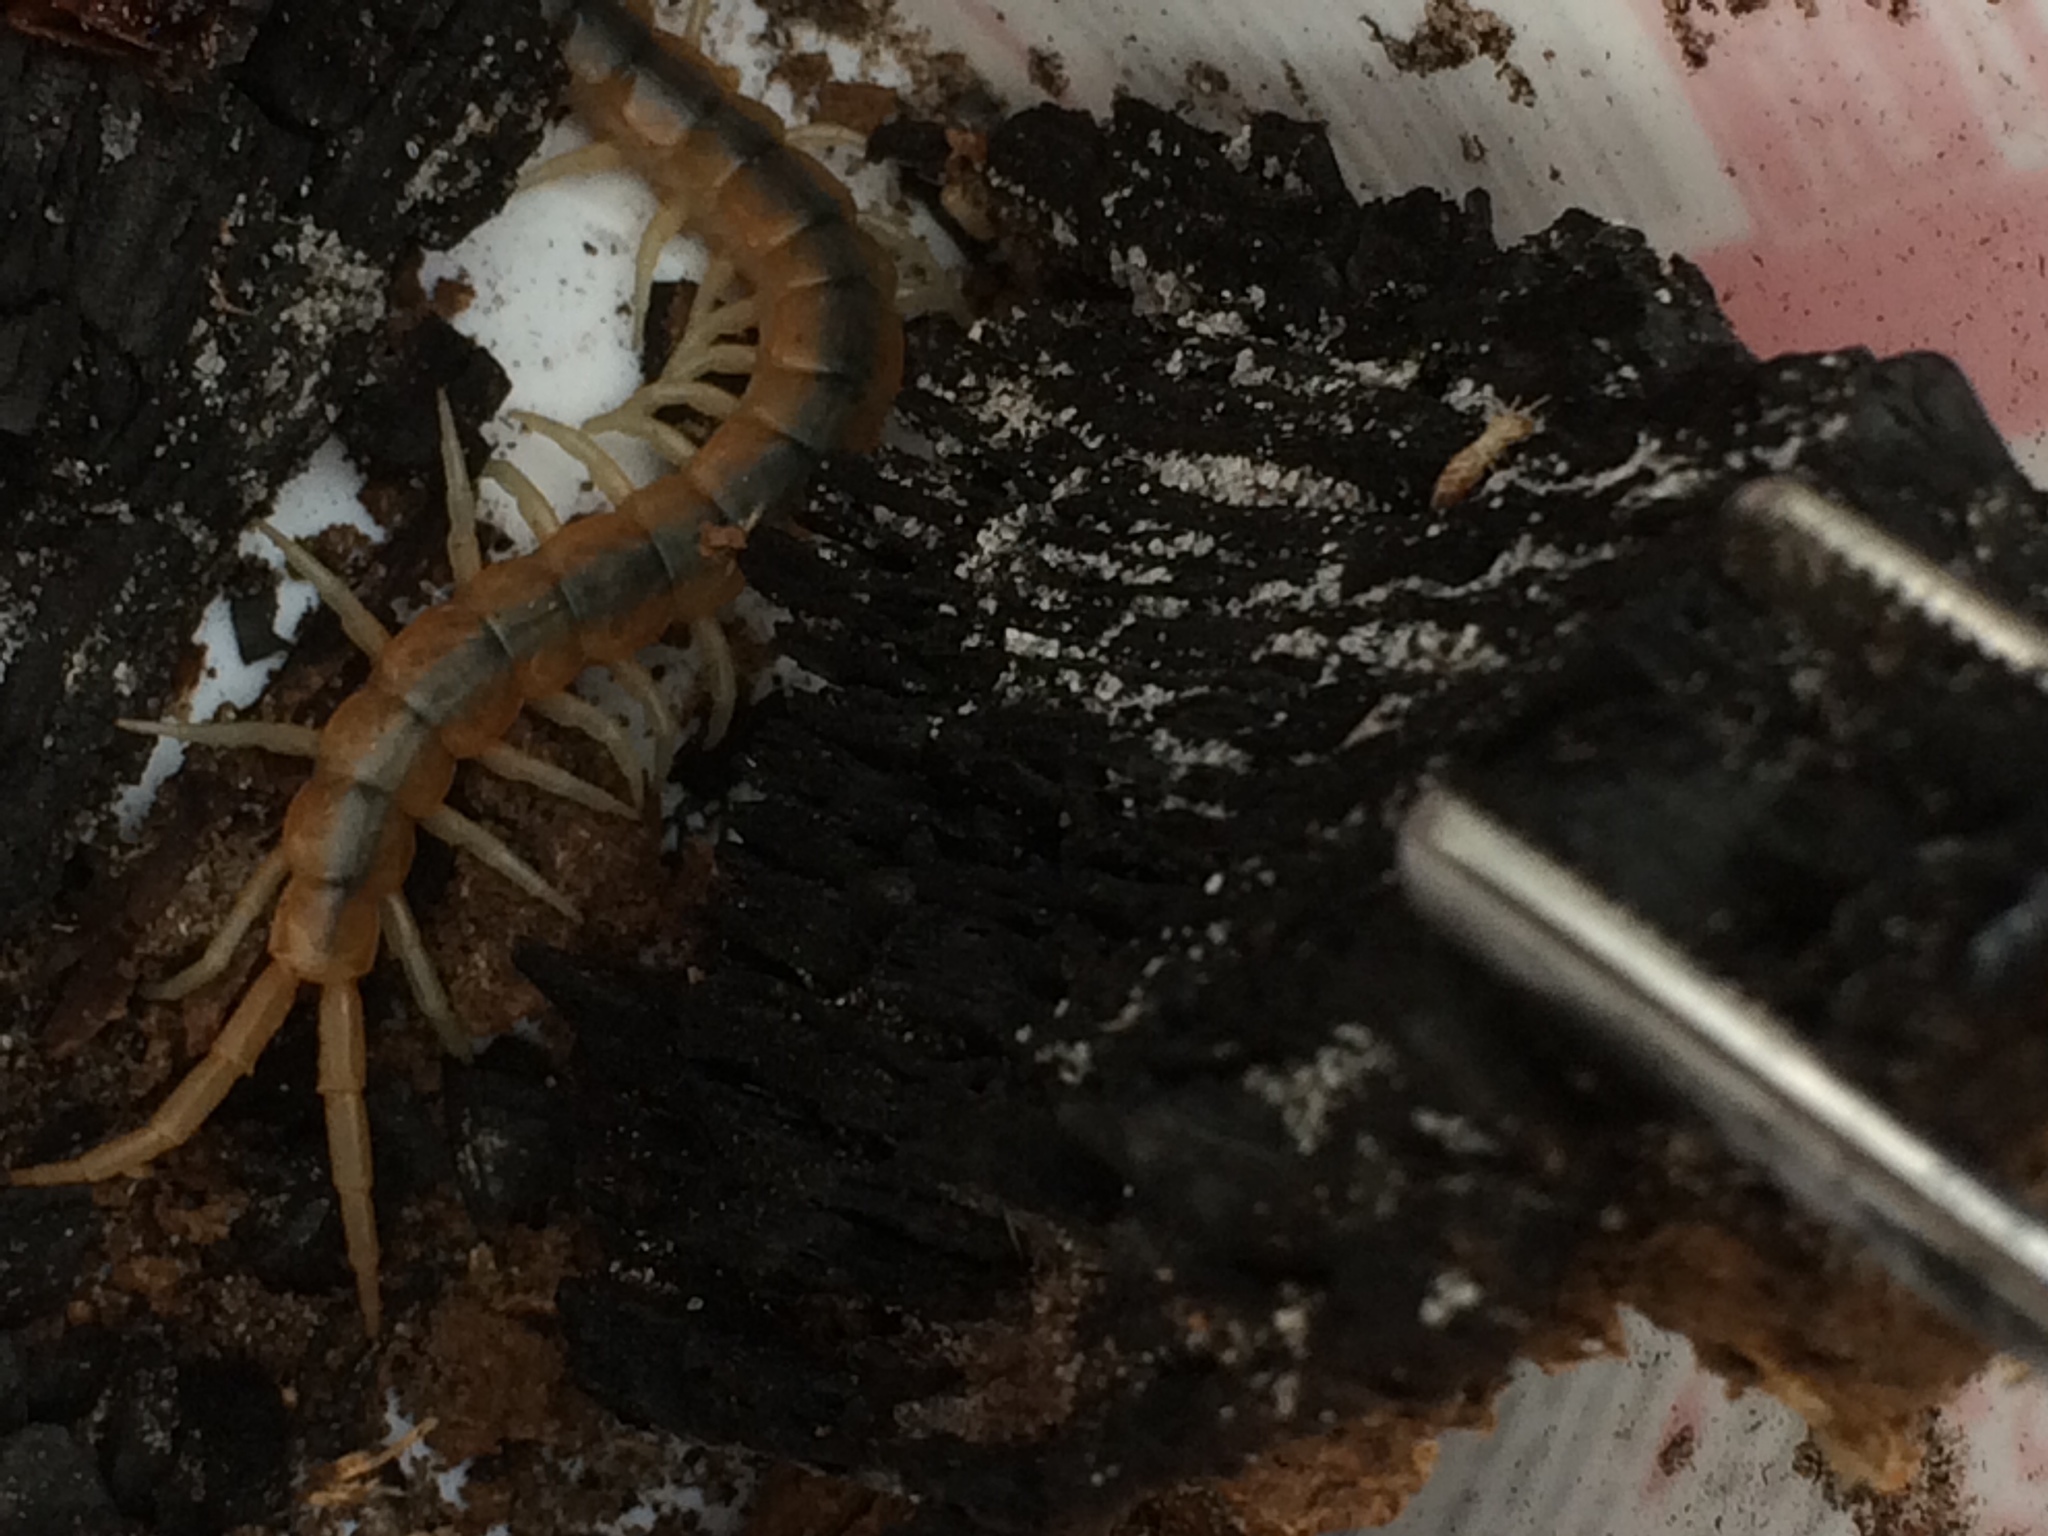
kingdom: Animalia
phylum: Arthropoda
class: Chilopoda
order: Scolopendromorpha
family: Scolopendridae
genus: Scolopendra
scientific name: Scolopendra viridis
